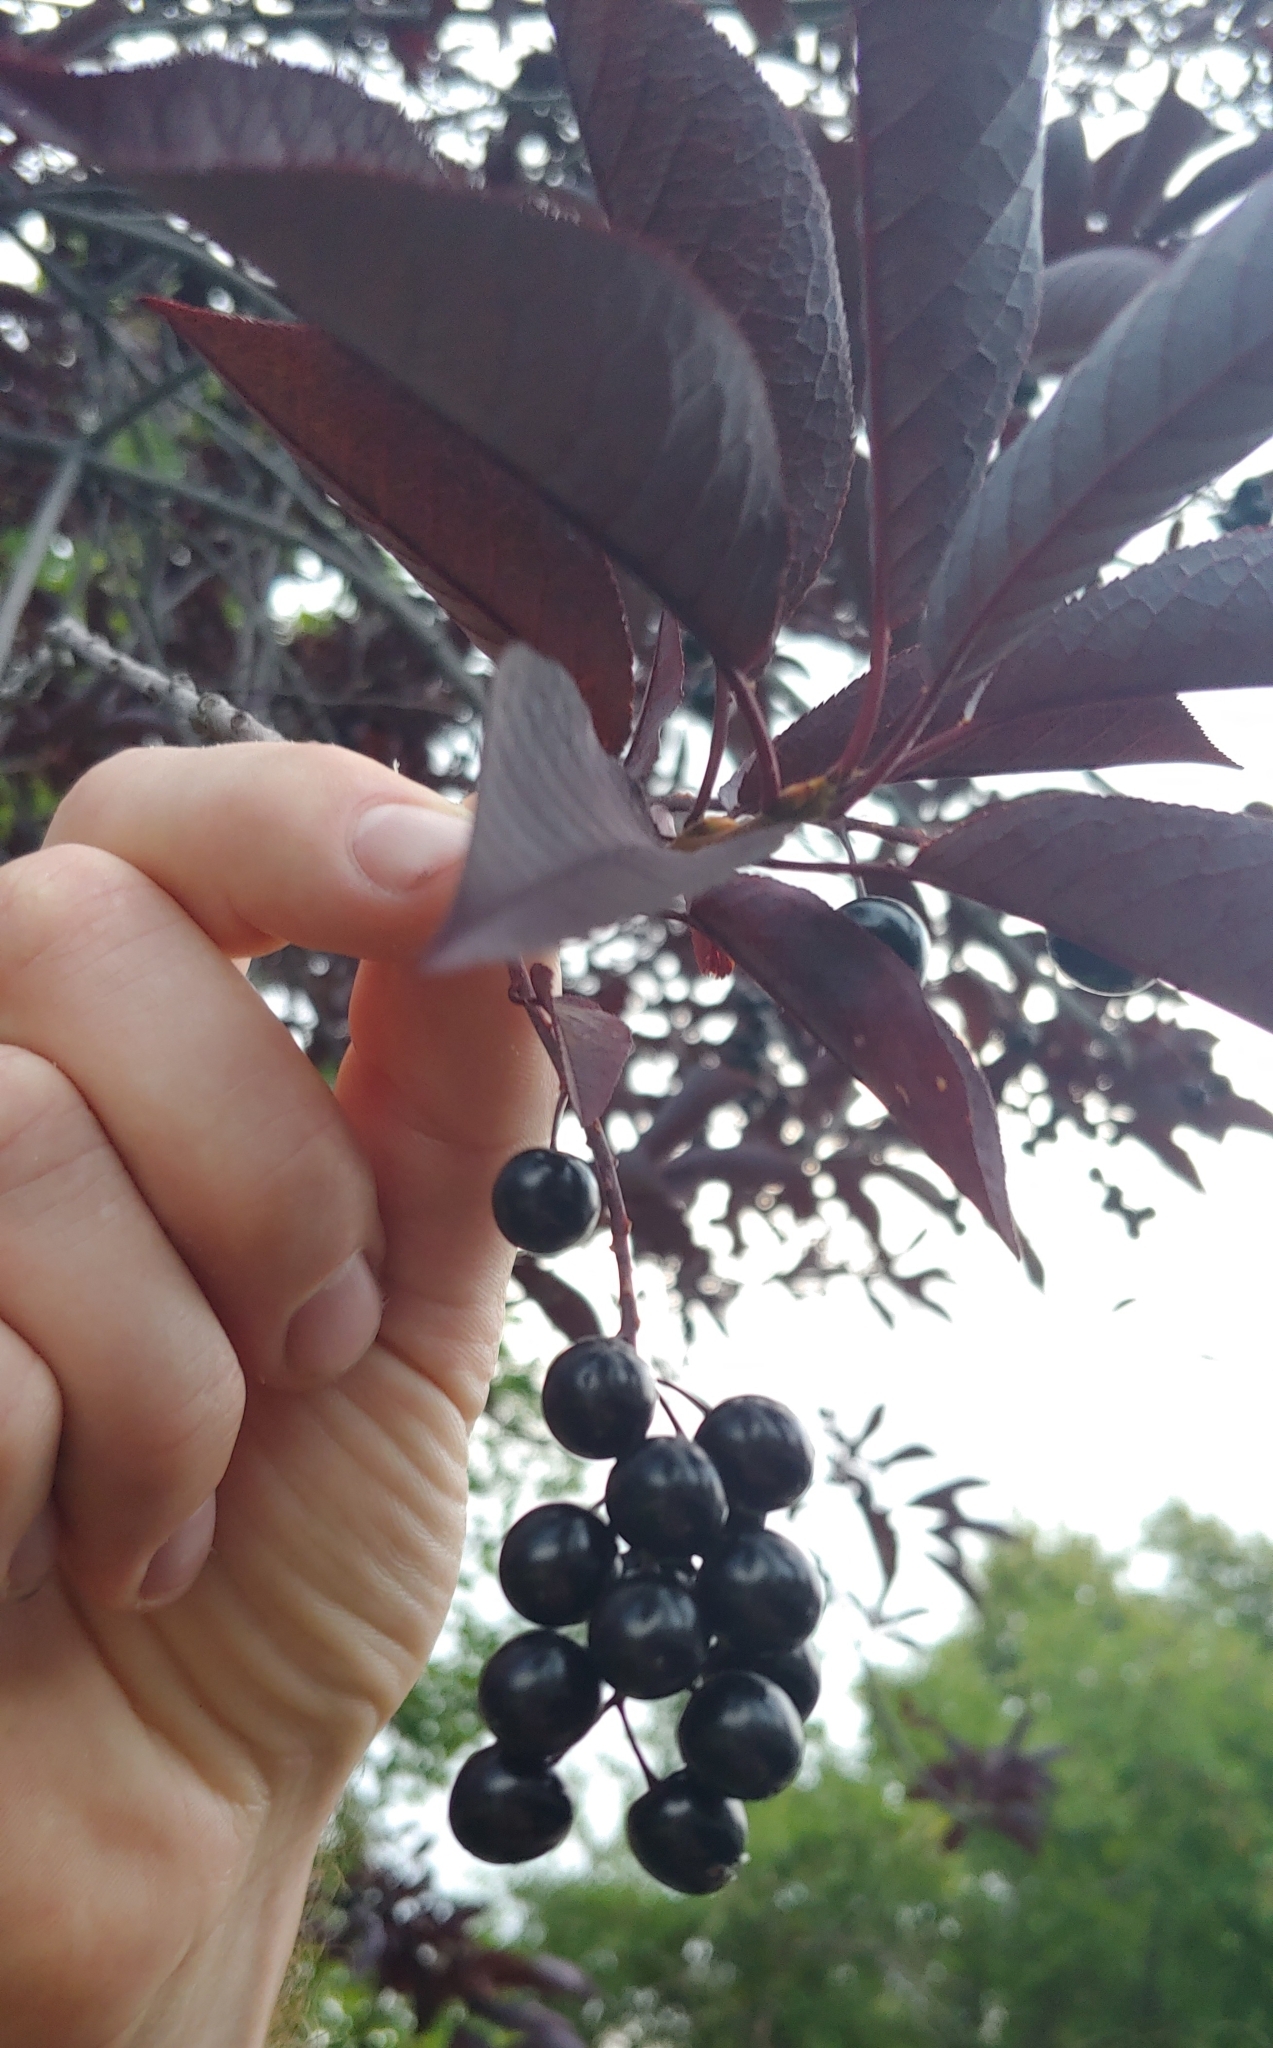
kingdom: Plantae
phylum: Tracheophyta
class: Magnoliopsida
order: Rosales
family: Rosaceae
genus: Prunus
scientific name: Prunus virginiana
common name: Chokecherry
